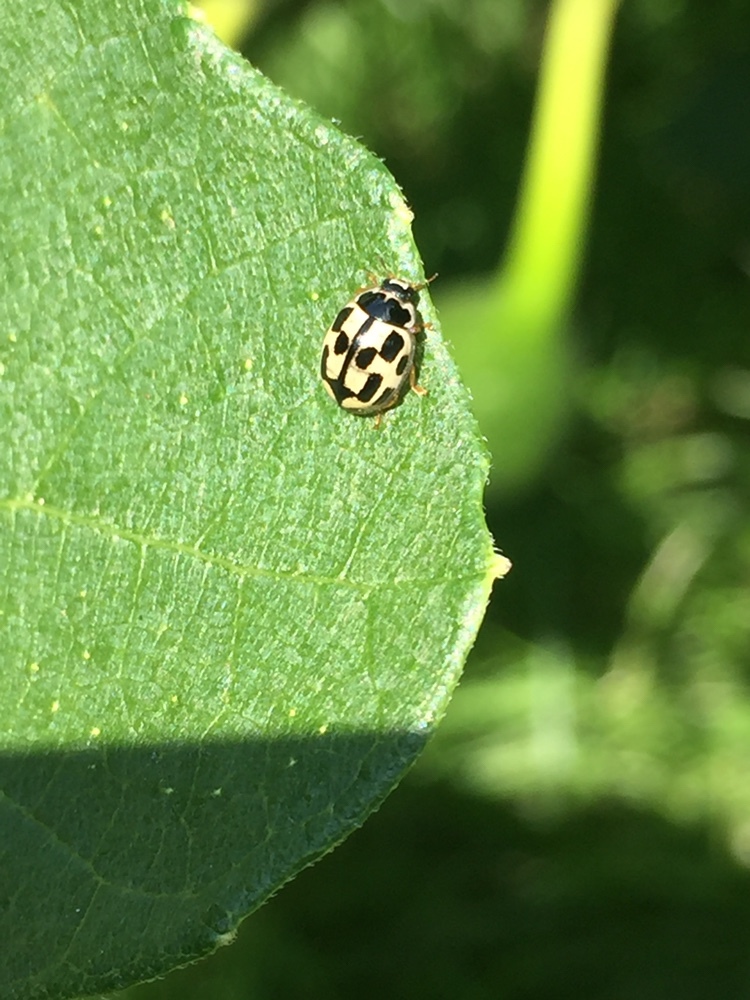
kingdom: Animalia
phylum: Arthropoda
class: Insecta
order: Coleoptera
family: Coccinellidae
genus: Propylaea
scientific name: Propylaea quatuordecimpunctata
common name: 14-spotted ladybird beetle
